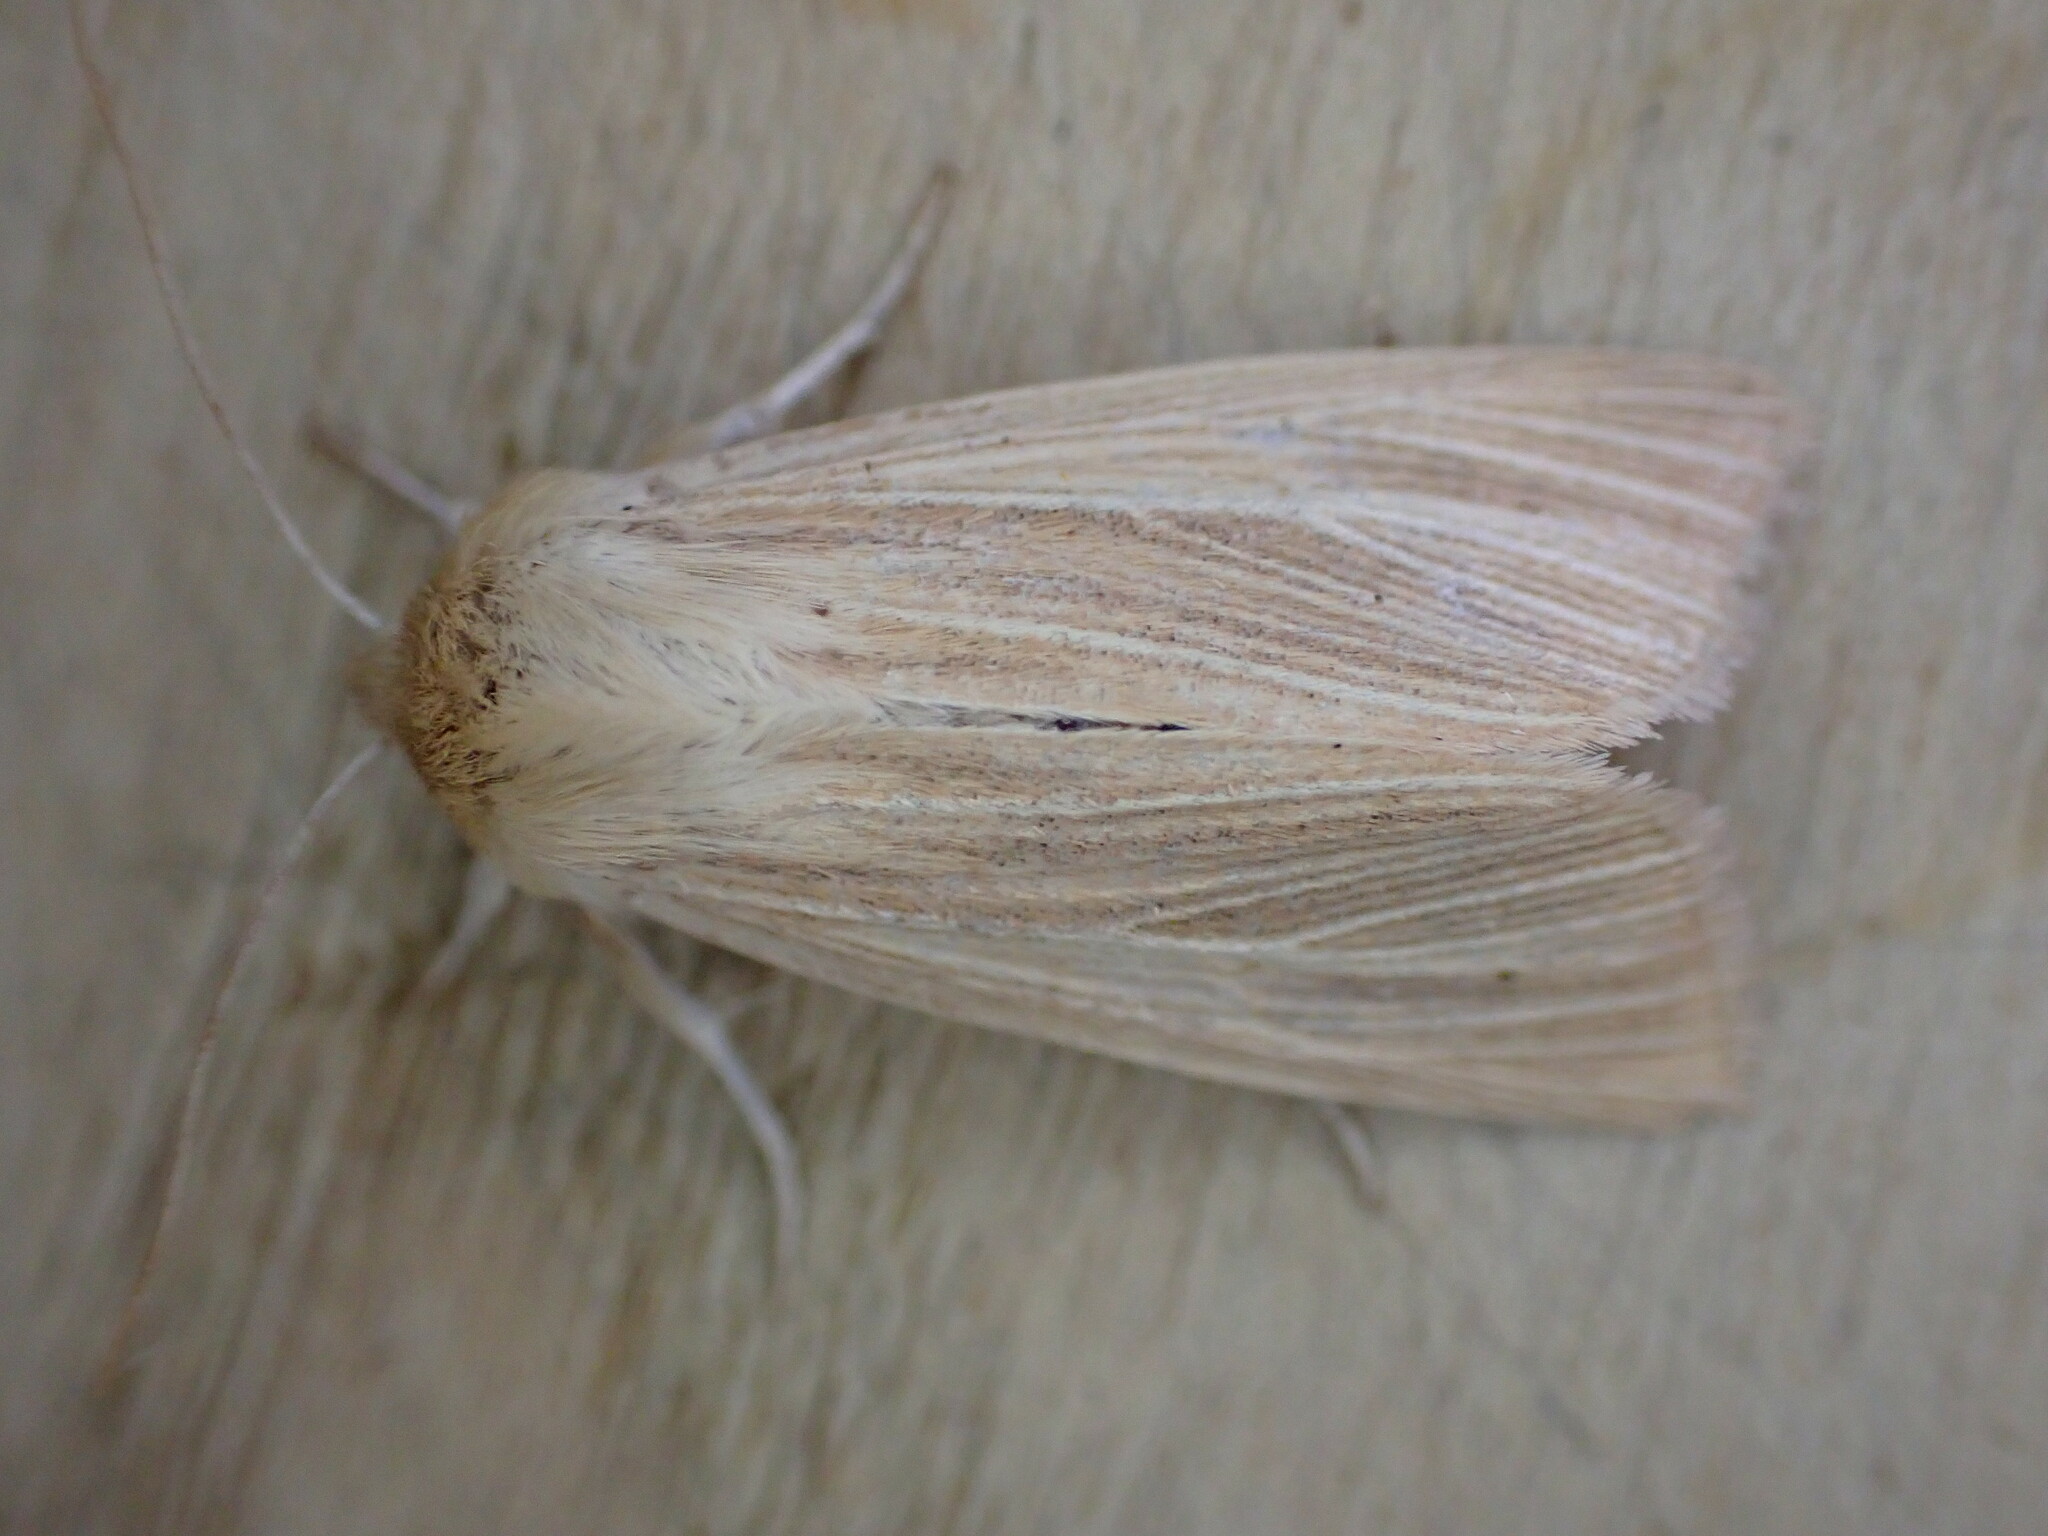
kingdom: Animalia
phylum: Arthropoda
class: Insecta
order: Lepidoptera
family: Noctuidae
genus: Mythimna
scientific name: Mythimna pallens
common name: Common wainscot
